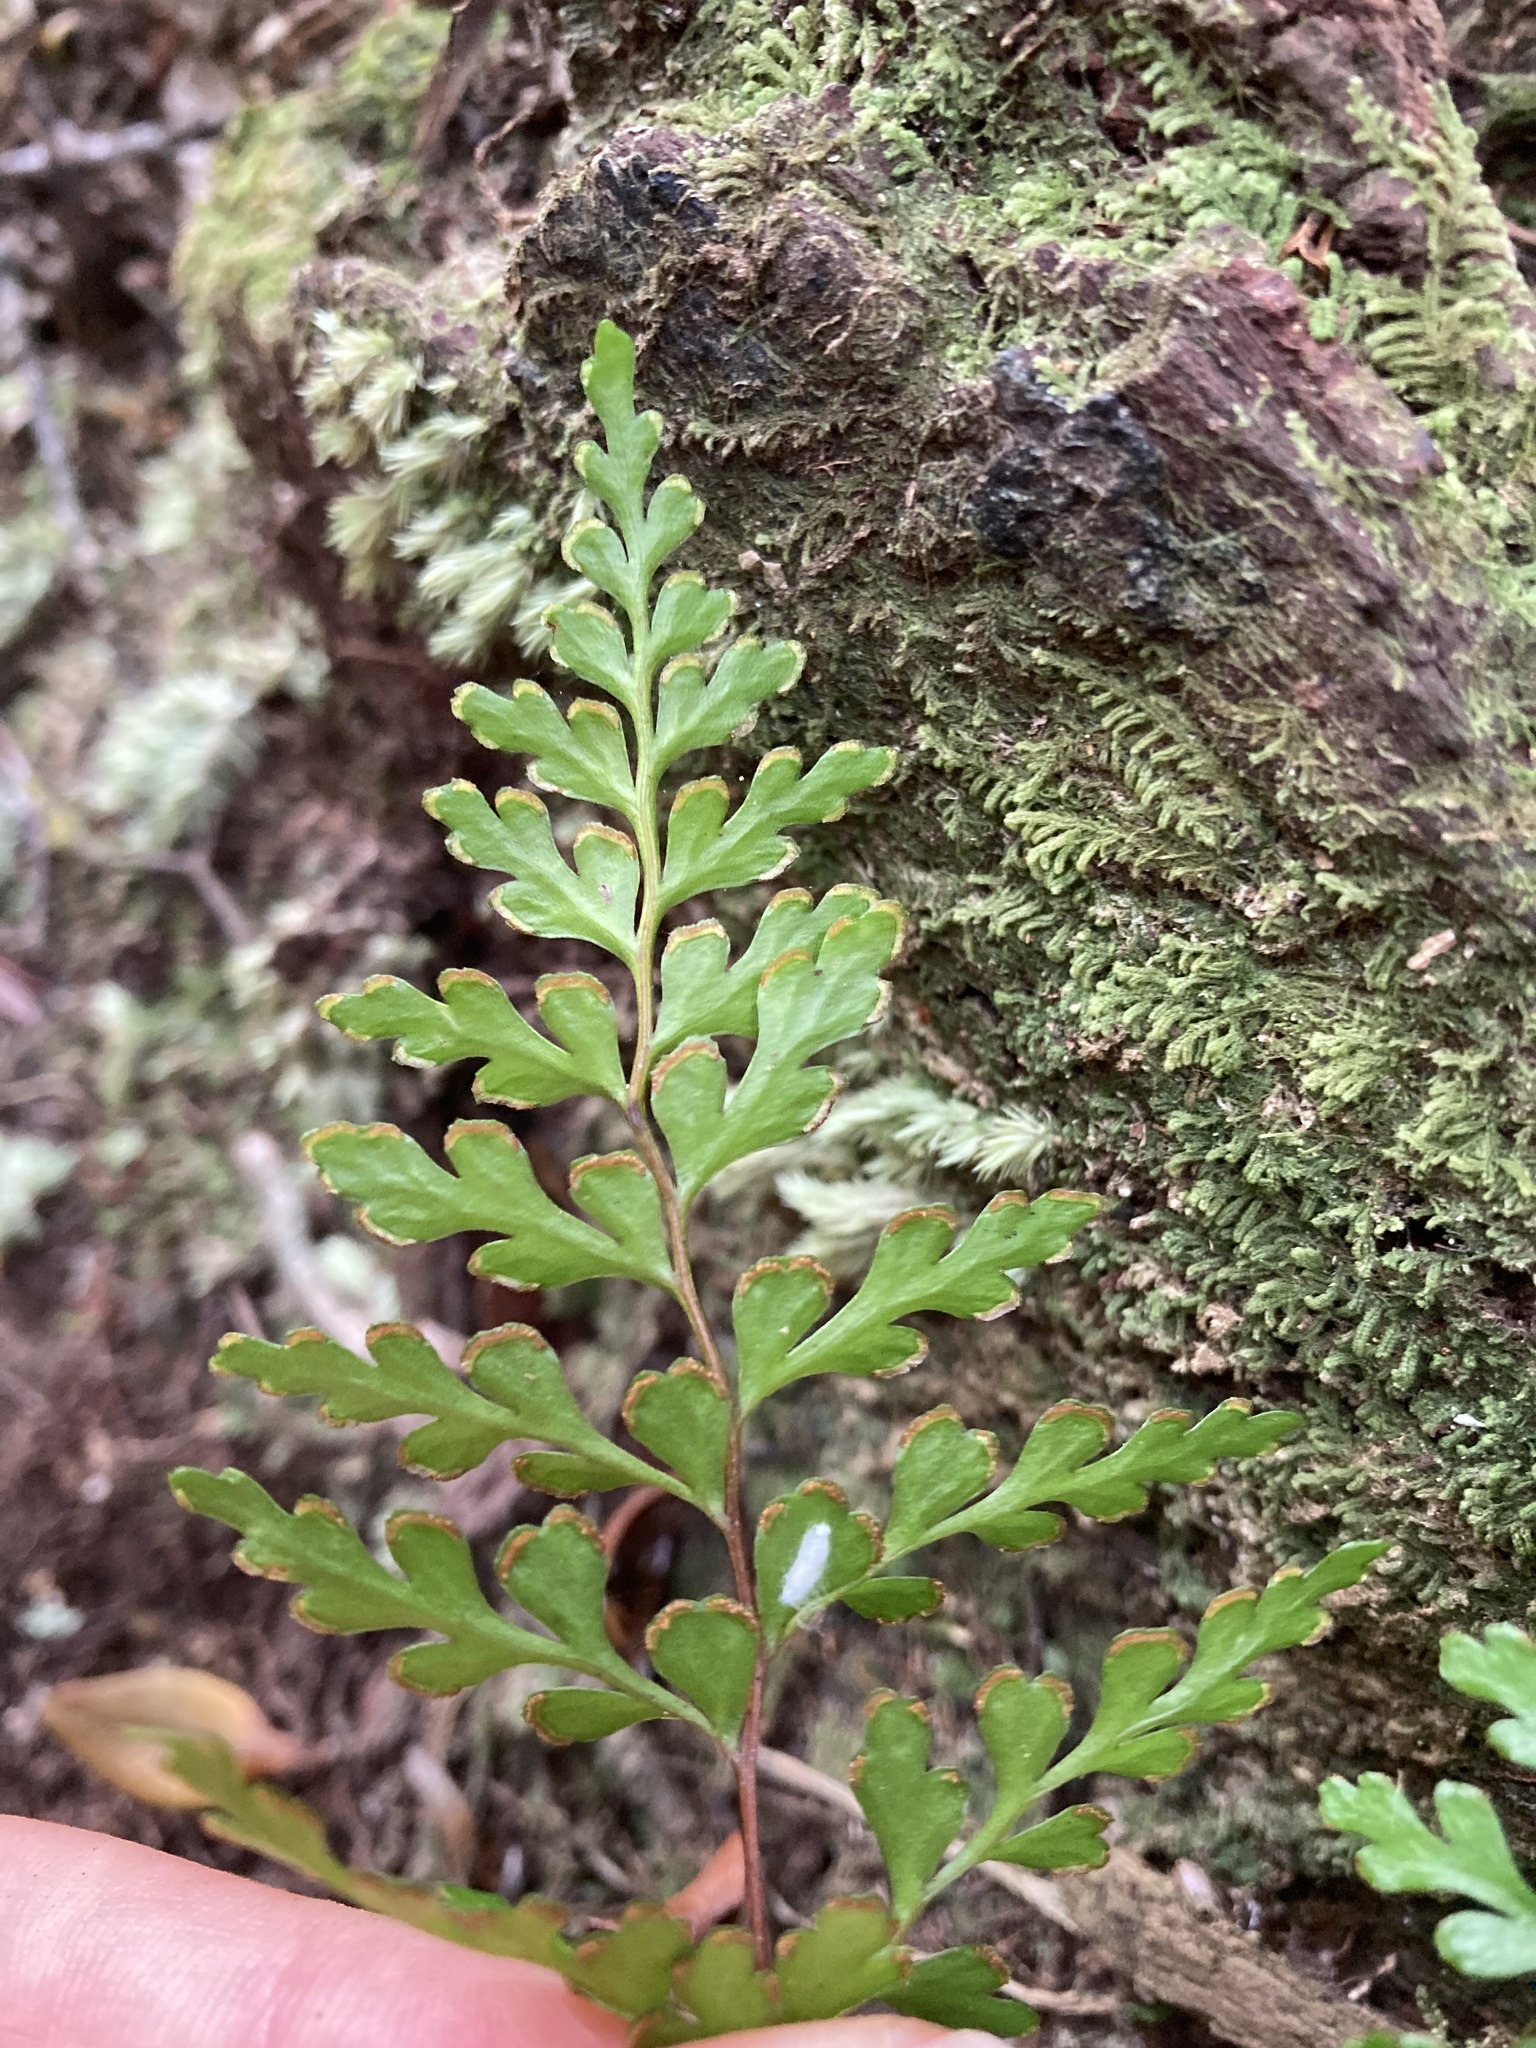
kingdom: Plantae
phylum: Tracheophyta
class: Polypodiopsida
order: Polypodiales
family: Lindsaeaceae
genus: Lindsaea
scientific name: Lindsaea trichomanoides
